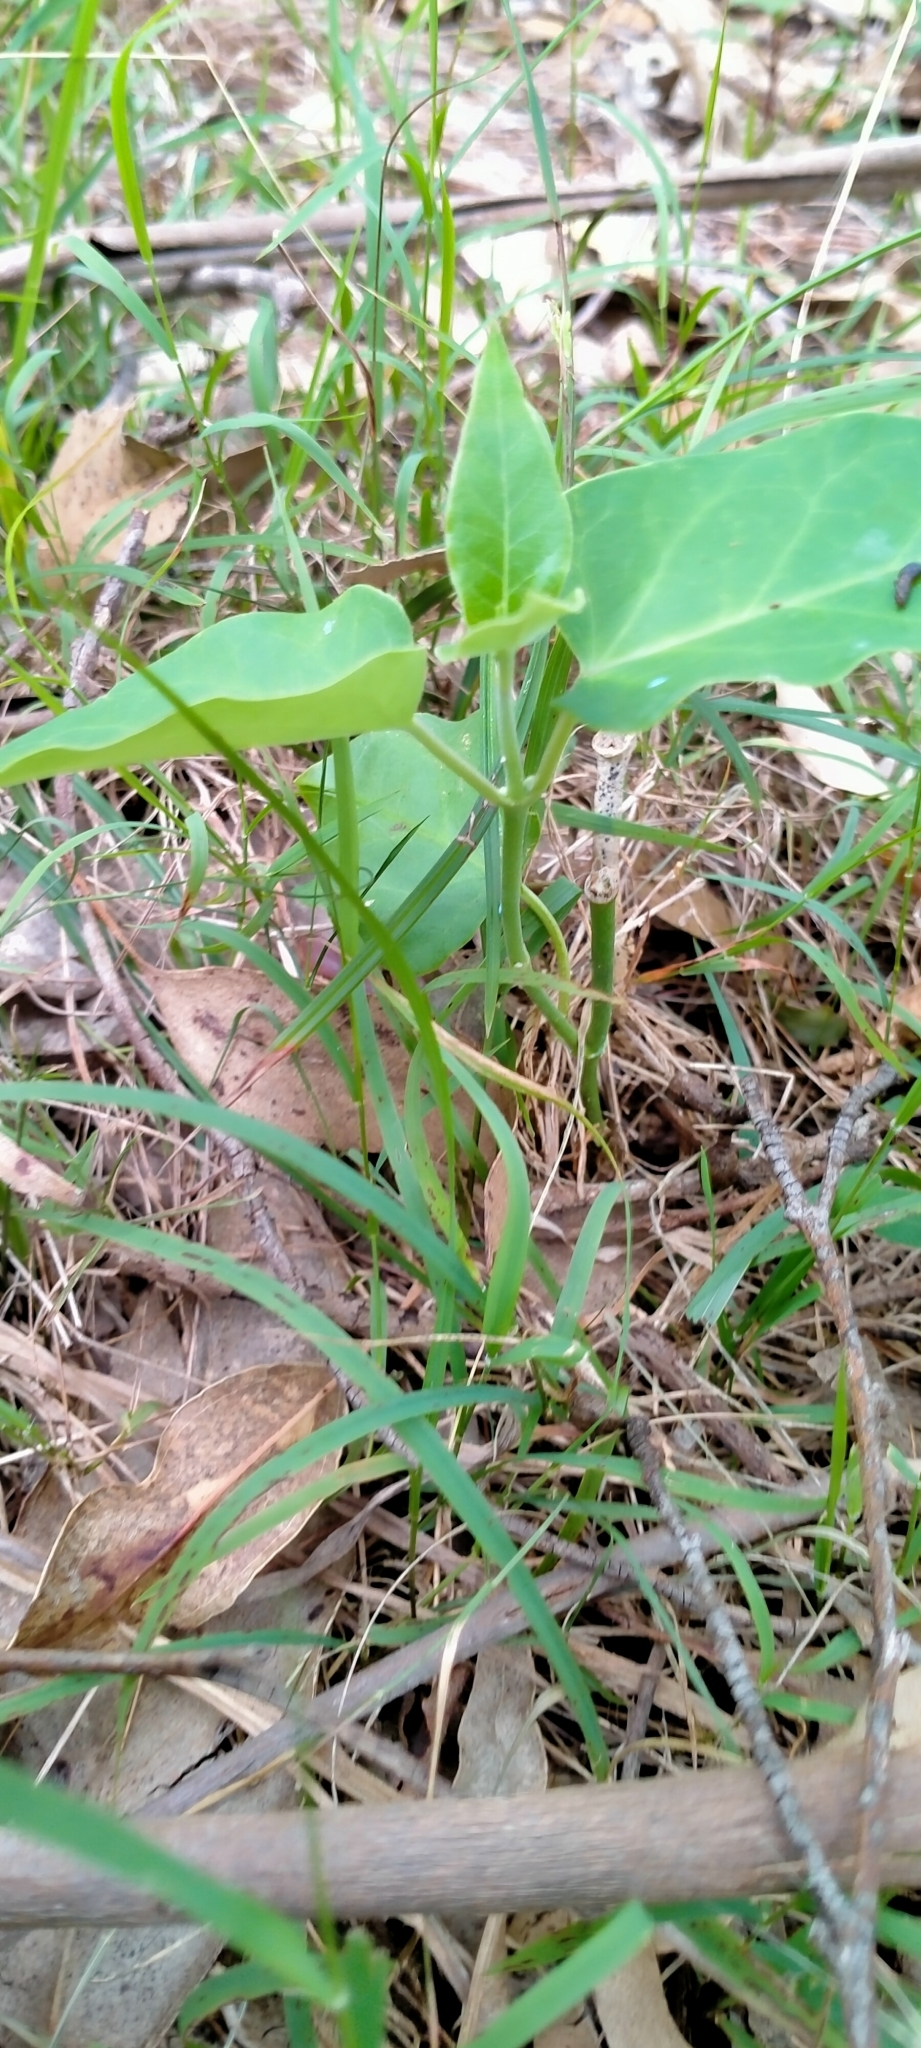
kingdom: Plantae
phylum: Tracheophyta
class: Magnoliopsida
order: Gentianales
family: Apocynaceae
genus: Araujia
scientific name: Araujia sericifera
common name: White bladderflower
